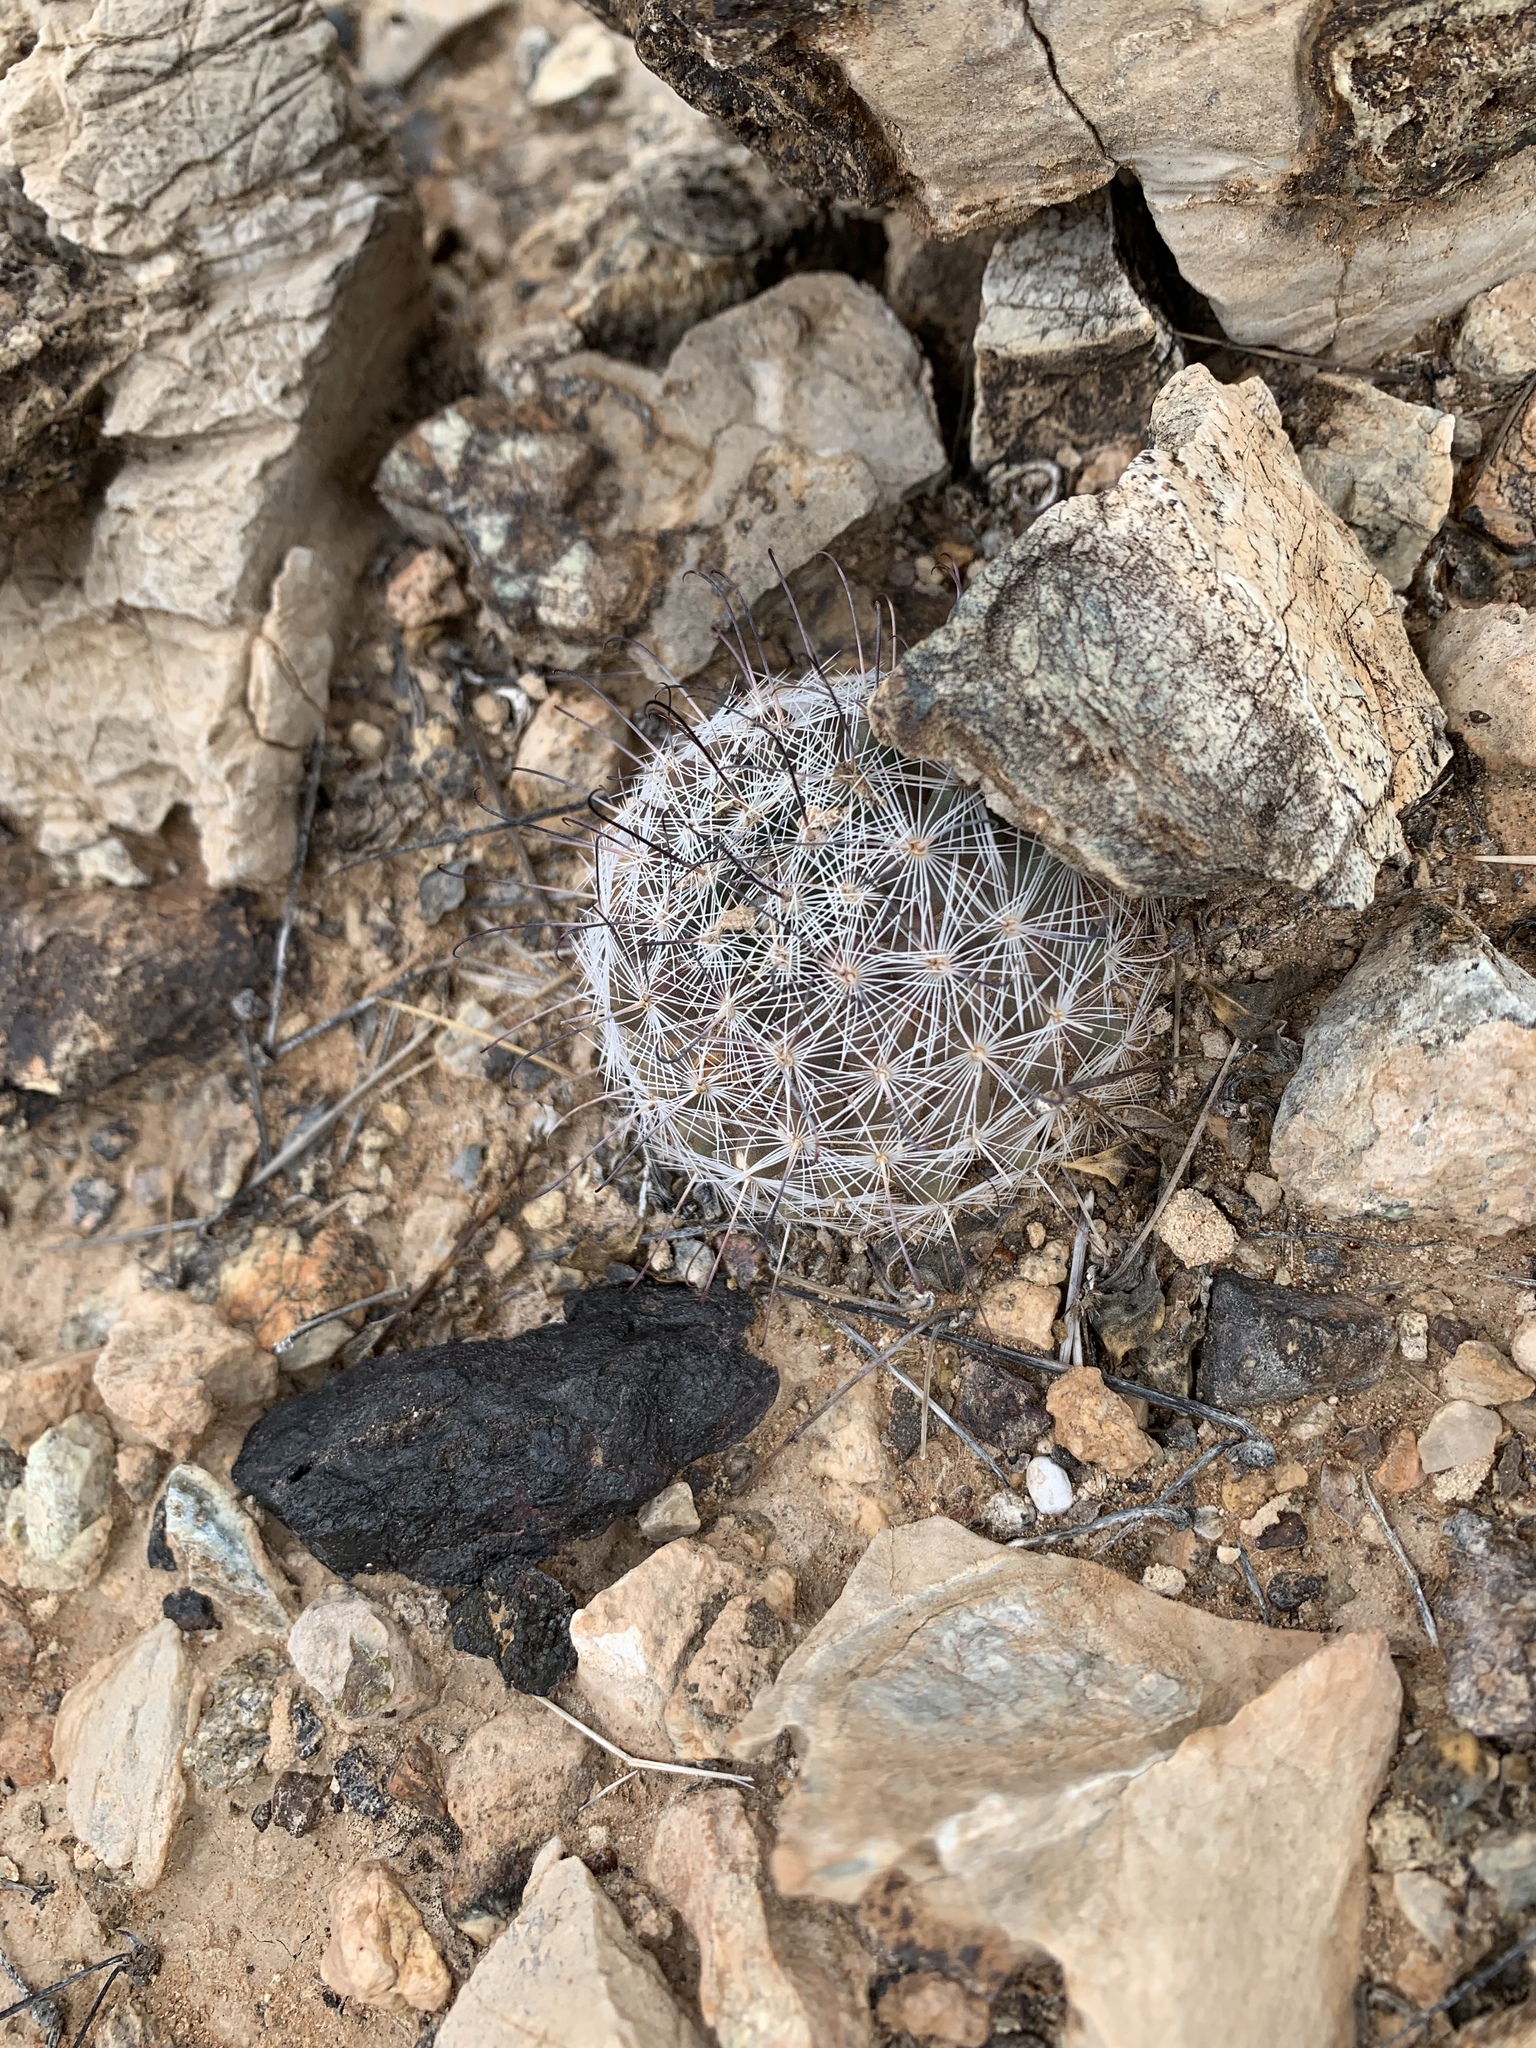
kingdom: Plantae
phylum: Tracheophyta
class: Magnoliopsida
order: Caryophyllales
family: Cactaceae
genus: Cochemiea
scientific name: Cochemiea grahamii
